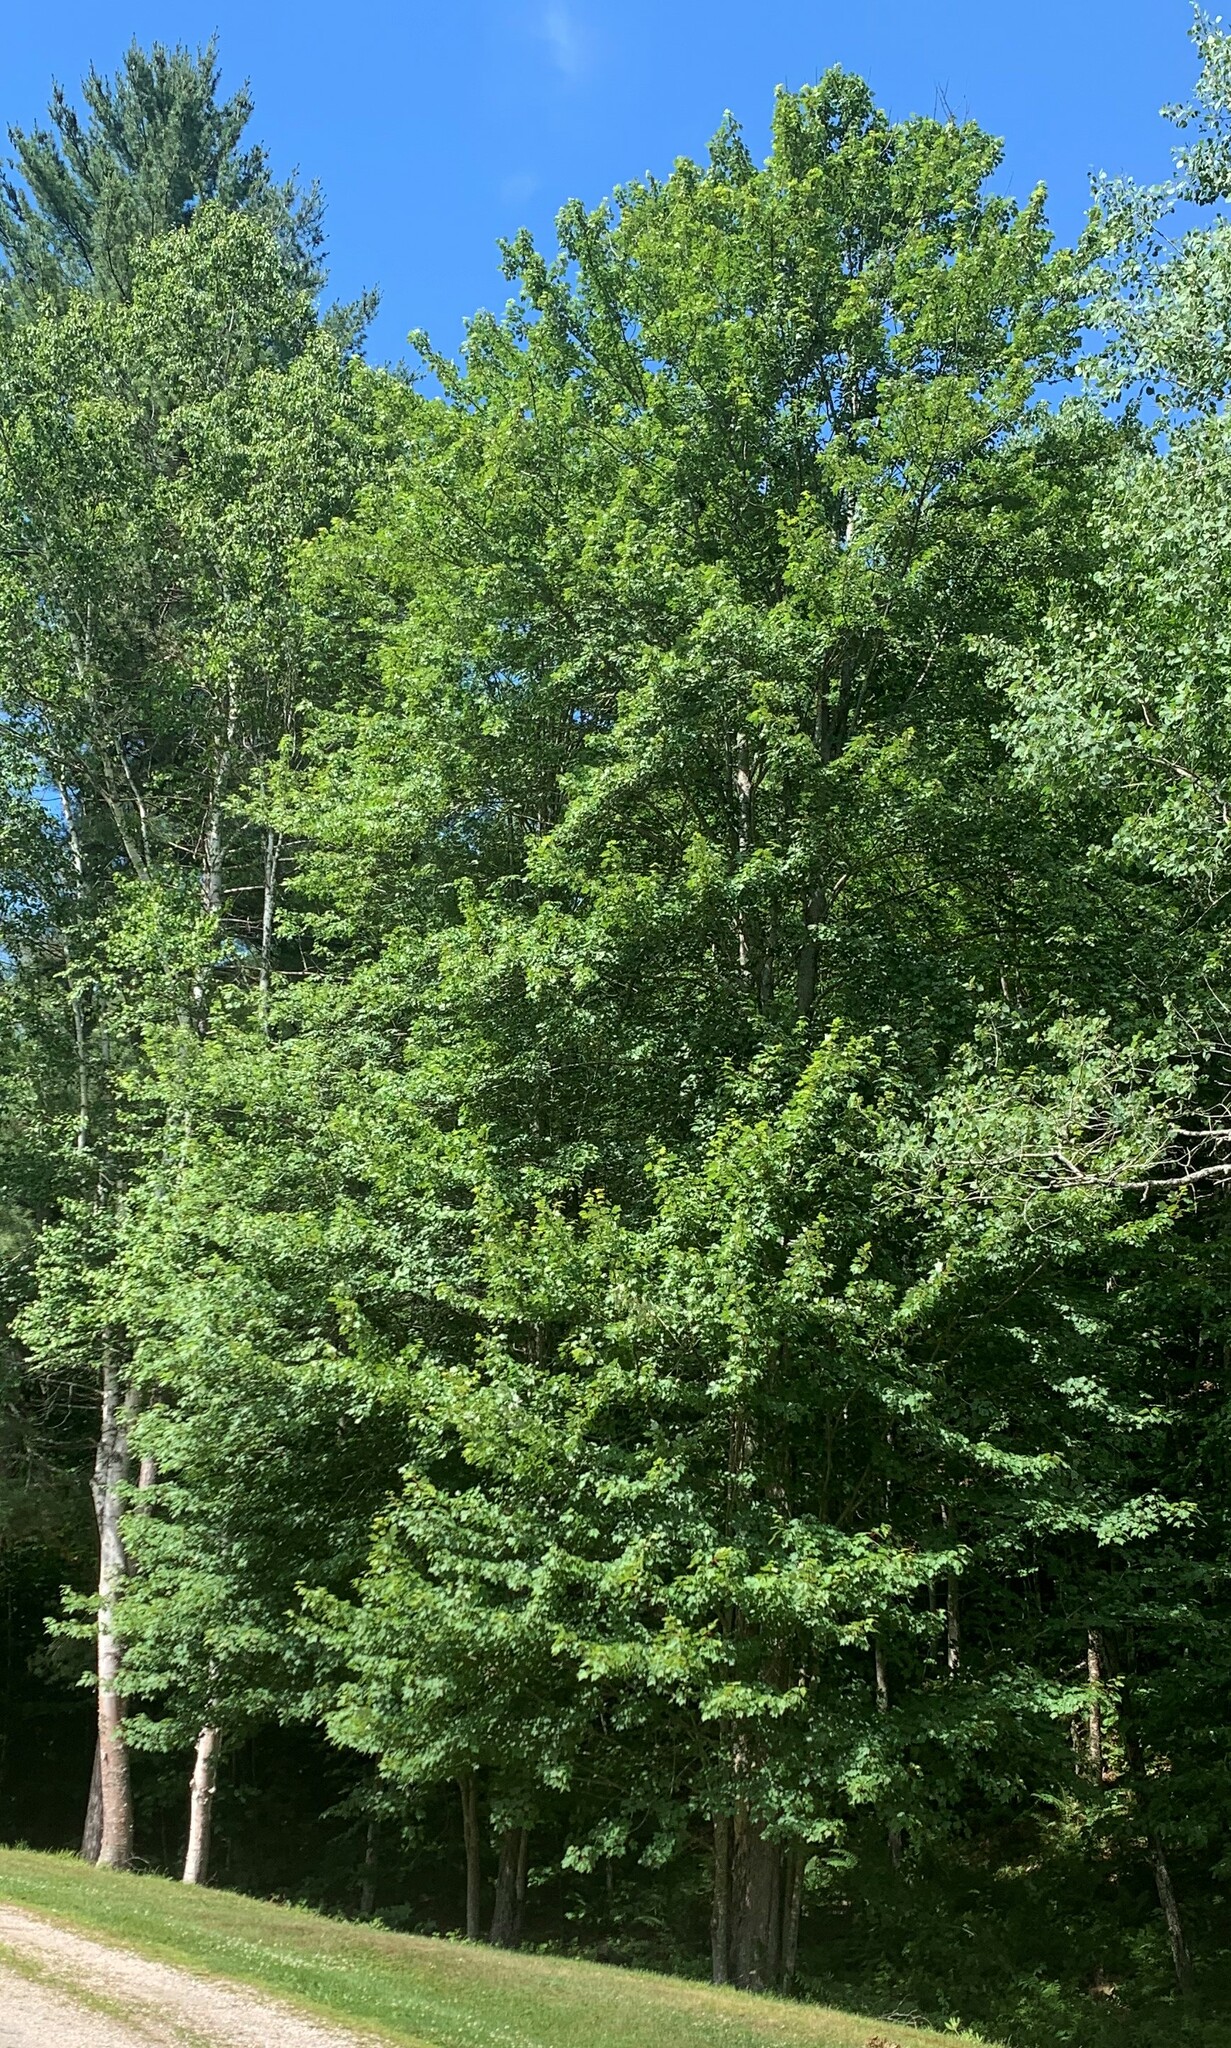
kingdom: Plantae
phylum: Tracheophyta
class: Magnoliopsida
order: Sapindales
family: Sapindaceae
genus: Acer
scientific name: Acer rubrum
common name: Red maple
